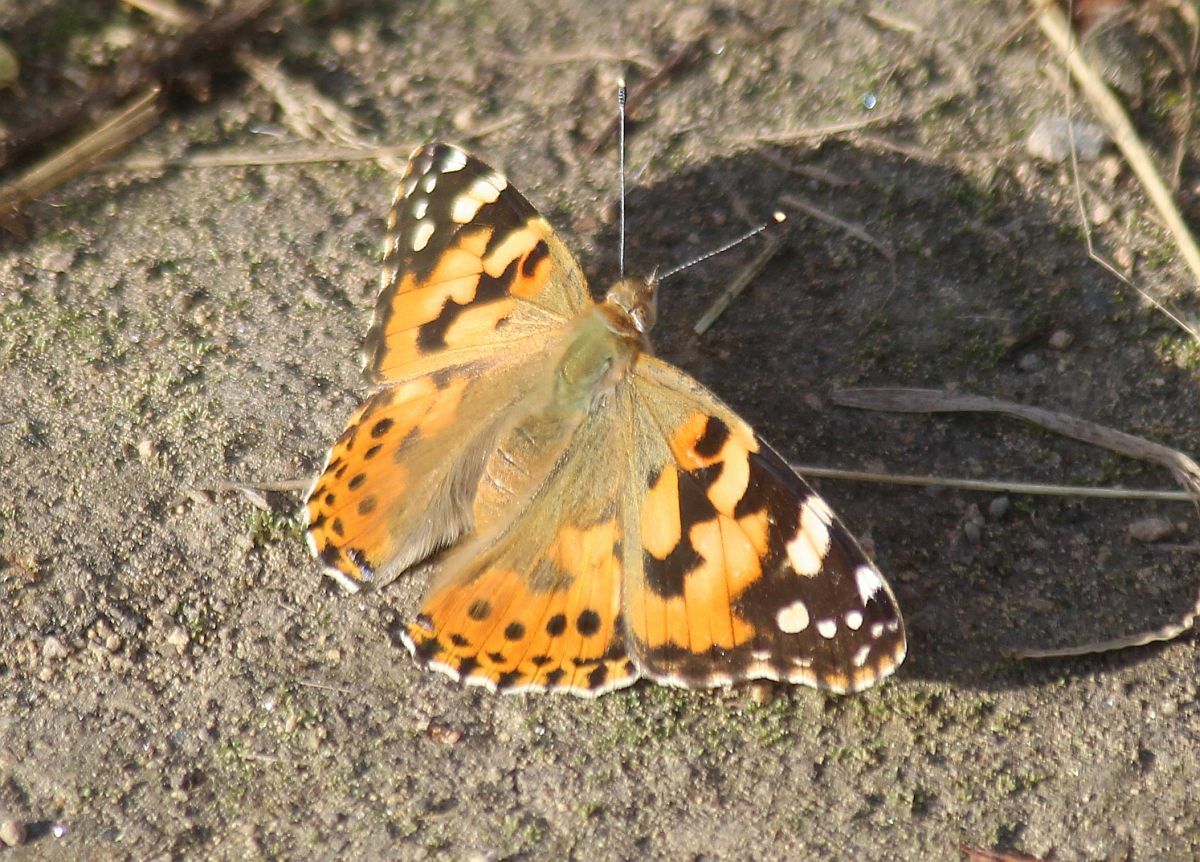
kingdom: Animalia
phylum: Arthropoda
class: Insecta
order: Lepidoptera
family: Nymphalidae
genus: Vanessa
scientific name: Vanessa cardui
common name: Painted lady
